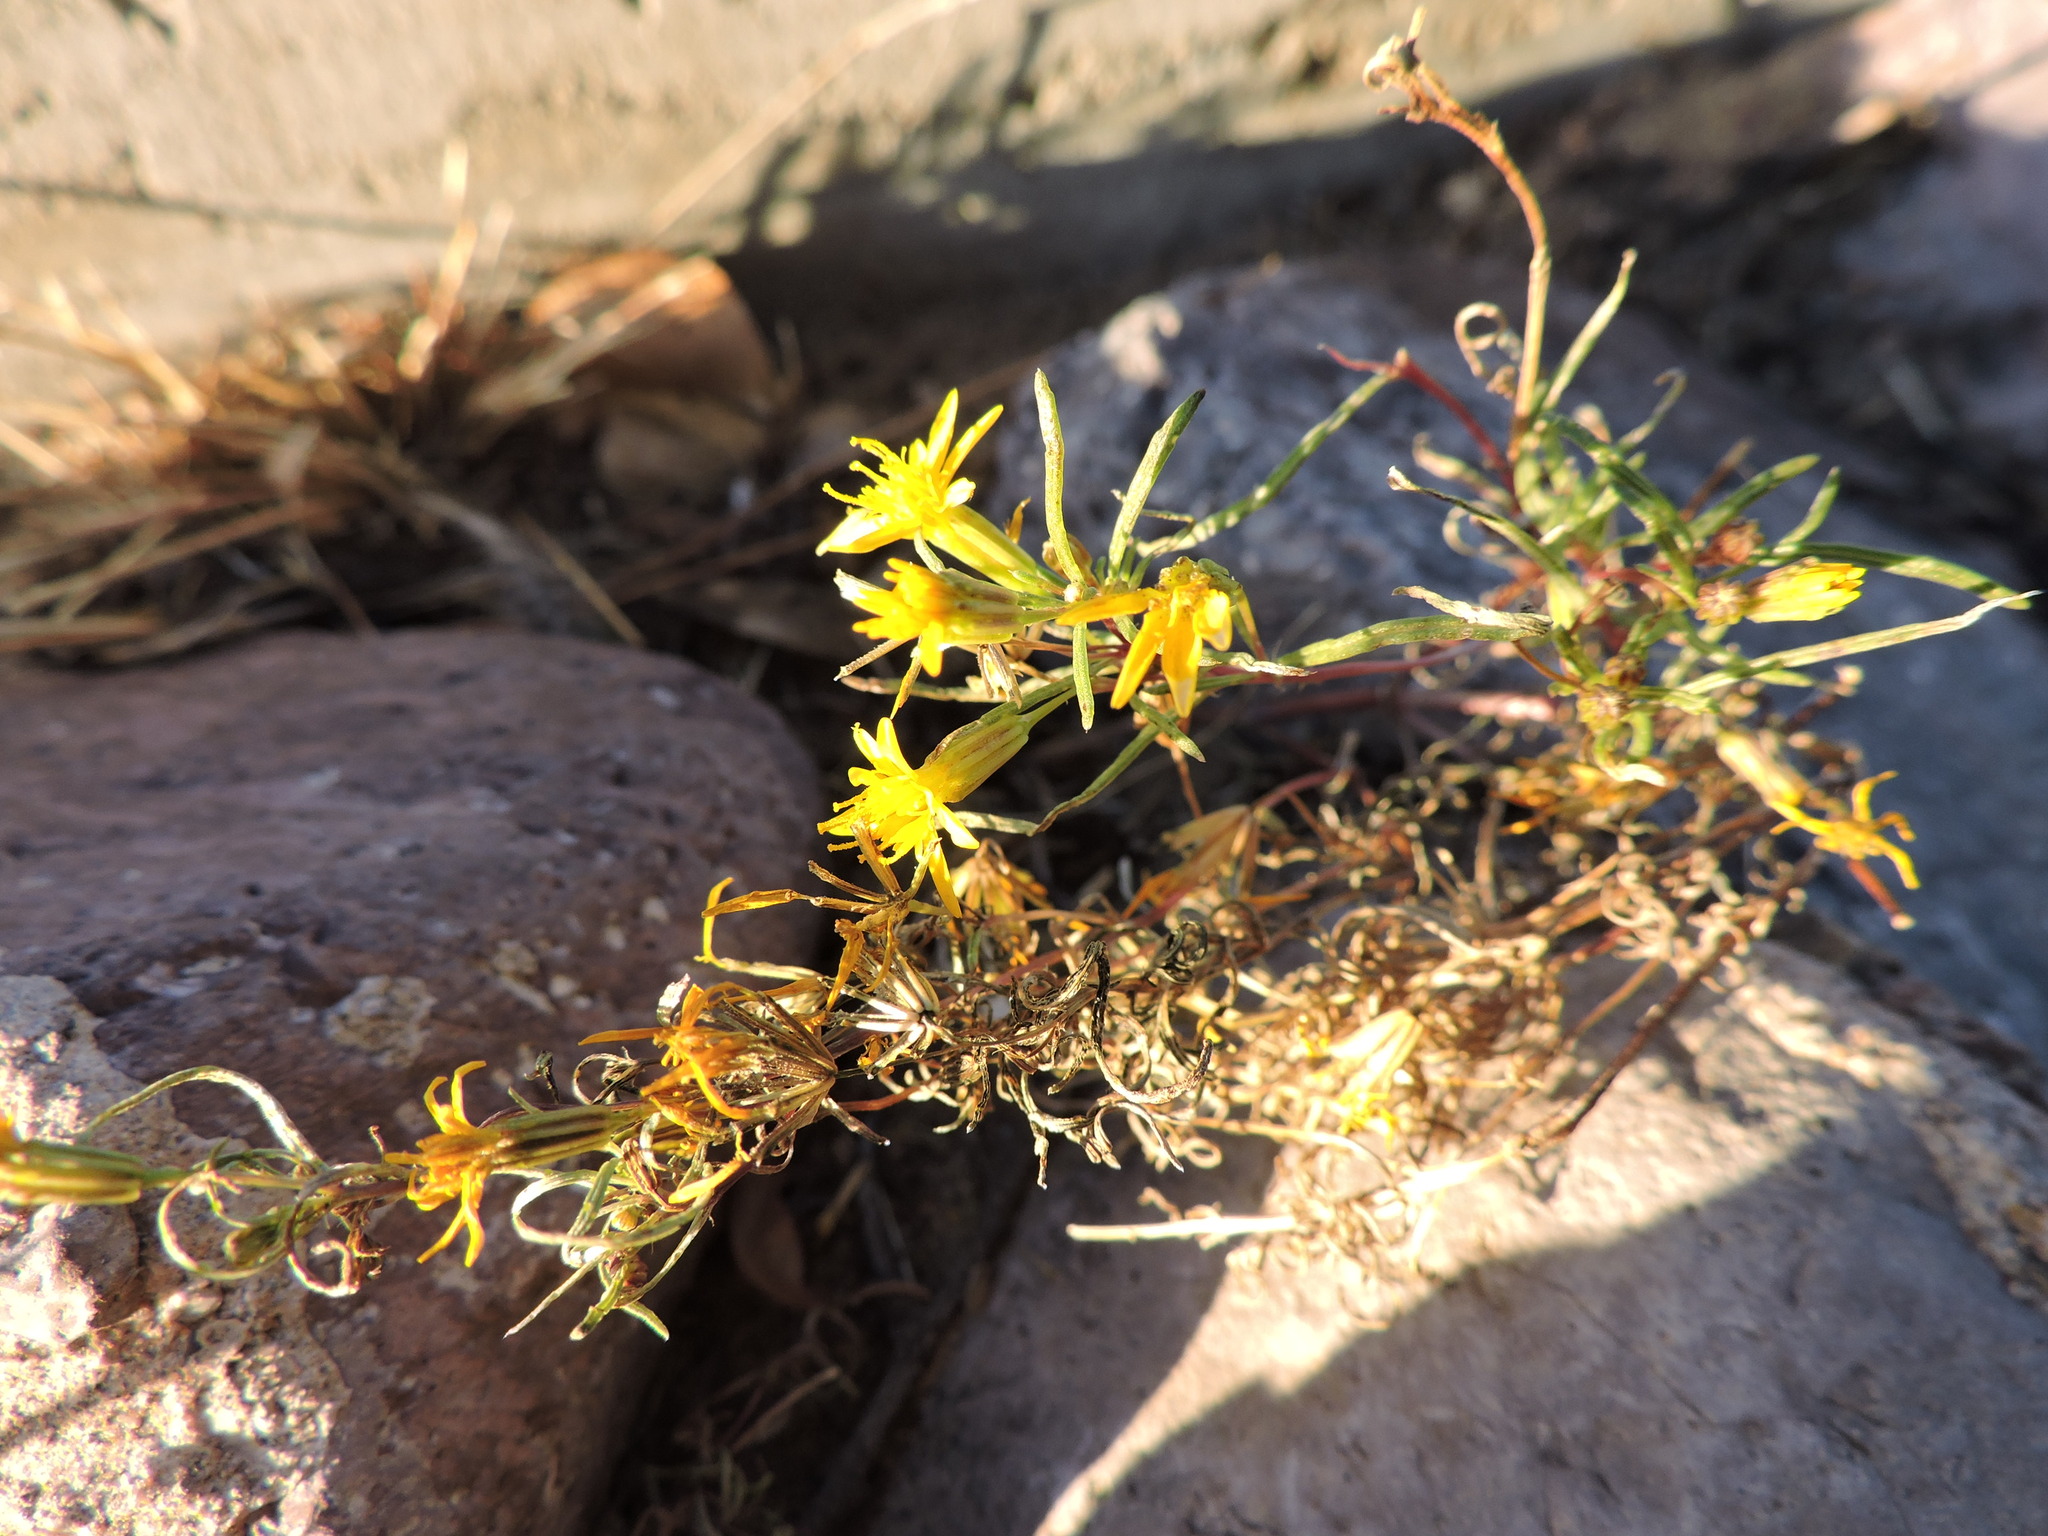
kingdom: Plantae
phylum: Tracheophyta
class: Magnoliopsida
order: Asterales
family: Asteraceae
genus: Pectis
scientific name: Pectis angustifolia
